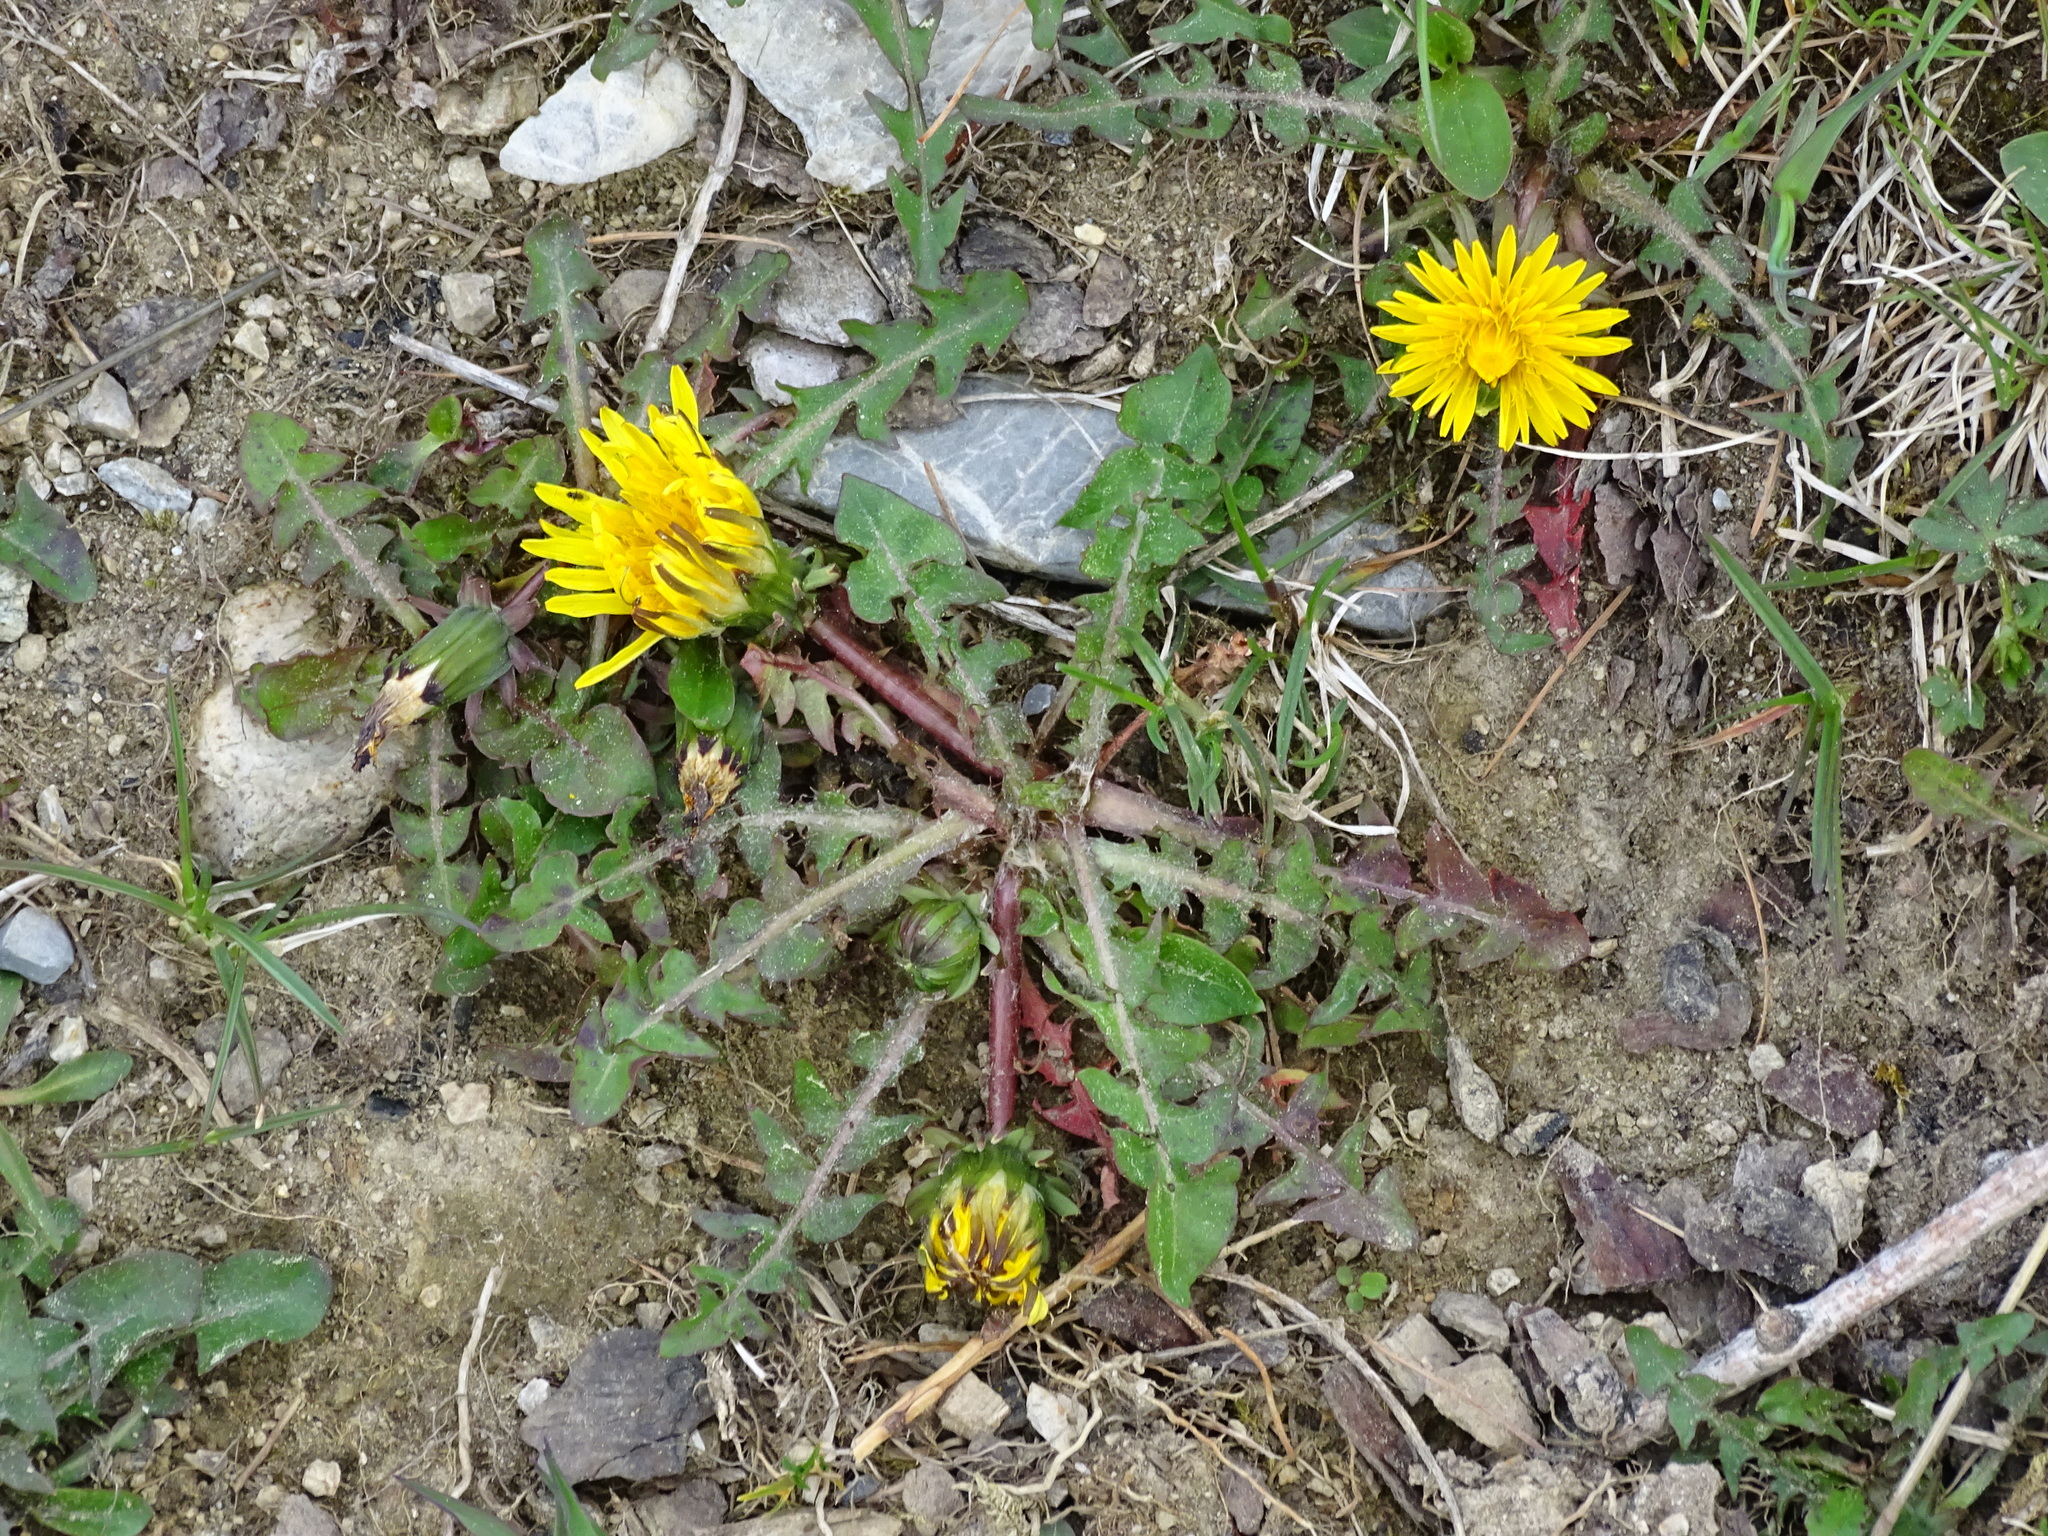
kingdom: Plantae
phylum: Tracheophyta
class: Magnoliopsida
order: Asterales
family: Asteraceae
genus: Taraxacum
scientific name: Taraxacum officinale
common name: Common dandelion
